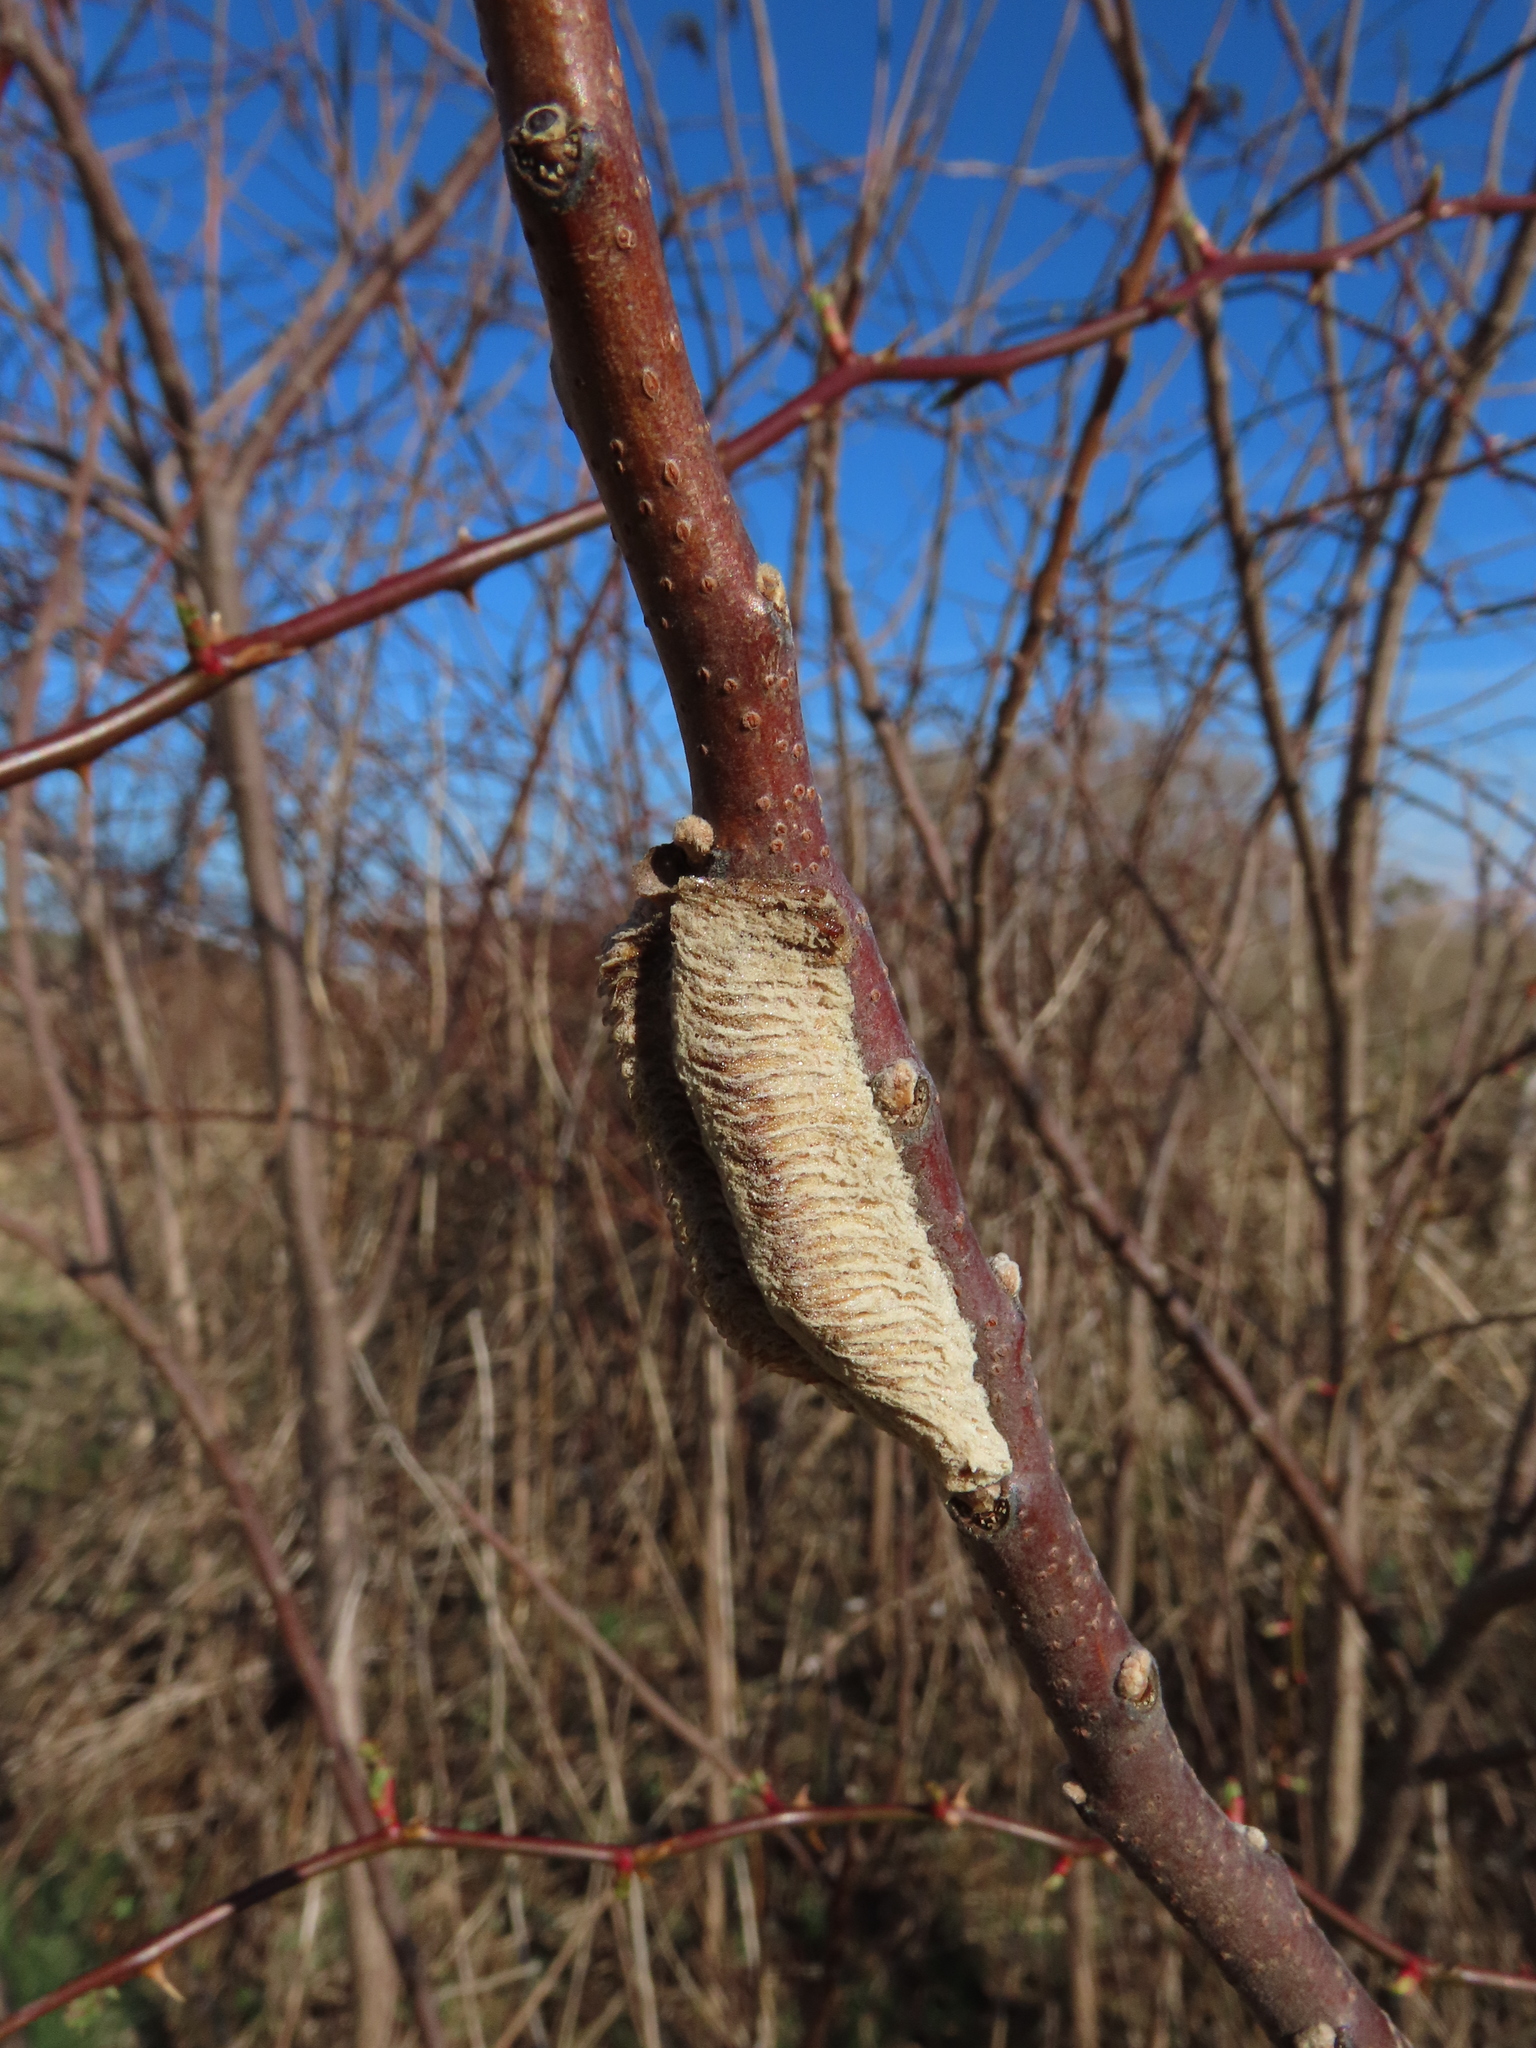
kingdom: Animalia
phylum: Arthropoda
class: Insecta
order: Mantodea
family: Mantidae
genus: Tenodera
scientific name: Tenodera angustipennis
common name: Asian mantis
